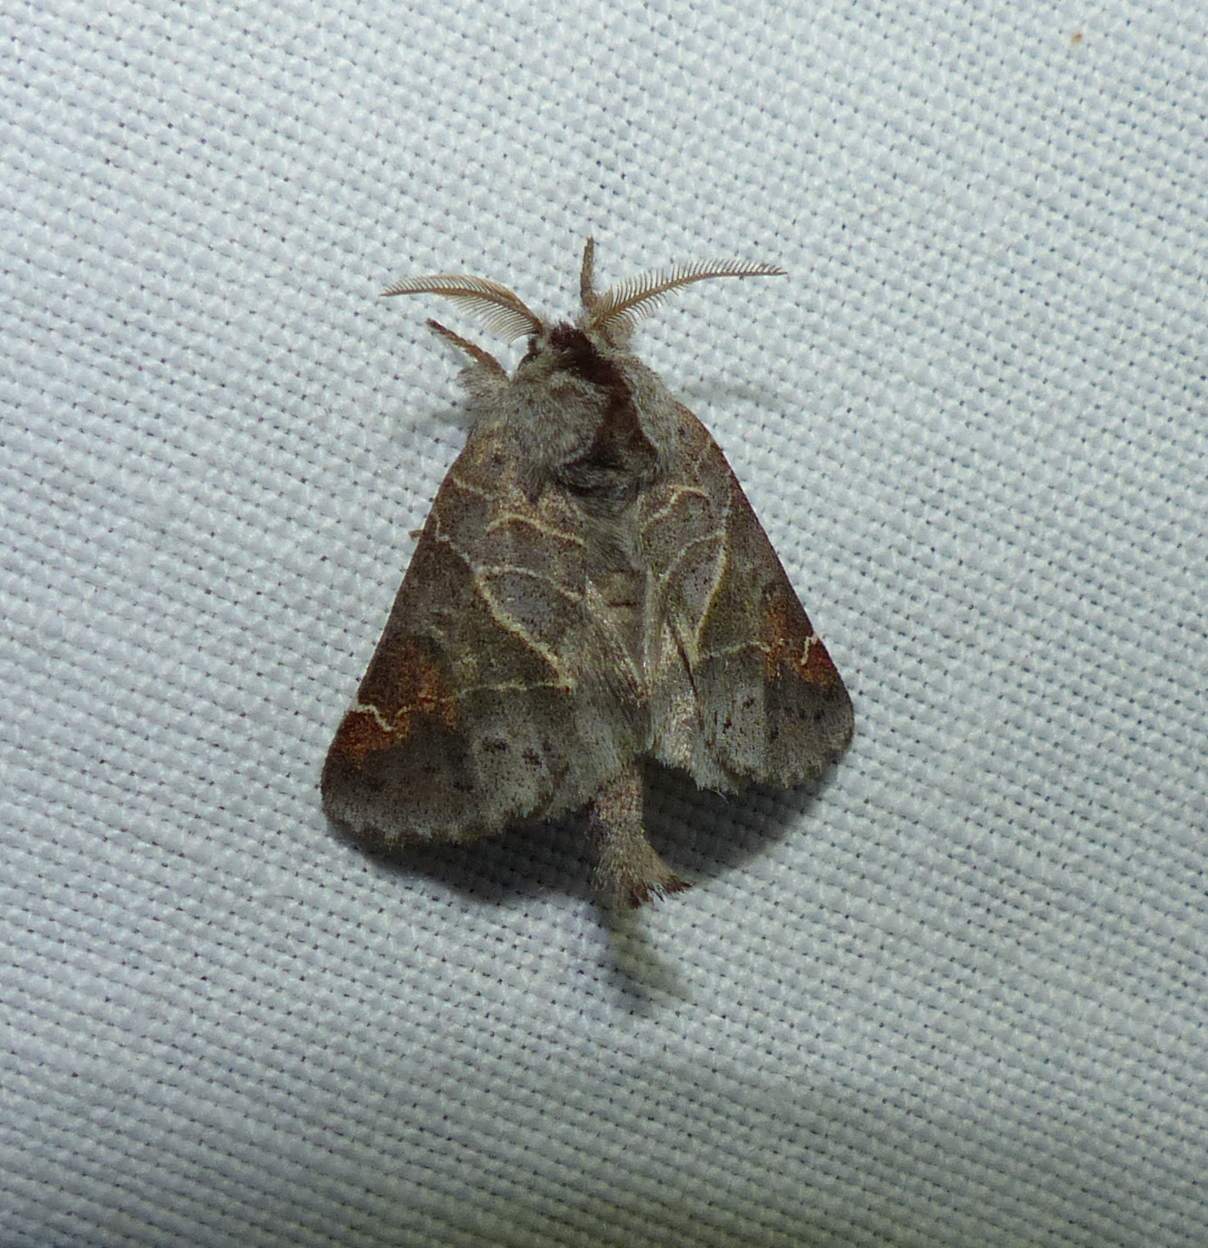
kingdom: Animalia
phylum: Arthropoda
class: Insecta
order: Lepidoptera
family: Notodontidae
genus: Clostera
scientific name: Clostera apicalis
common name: Apical prominent
